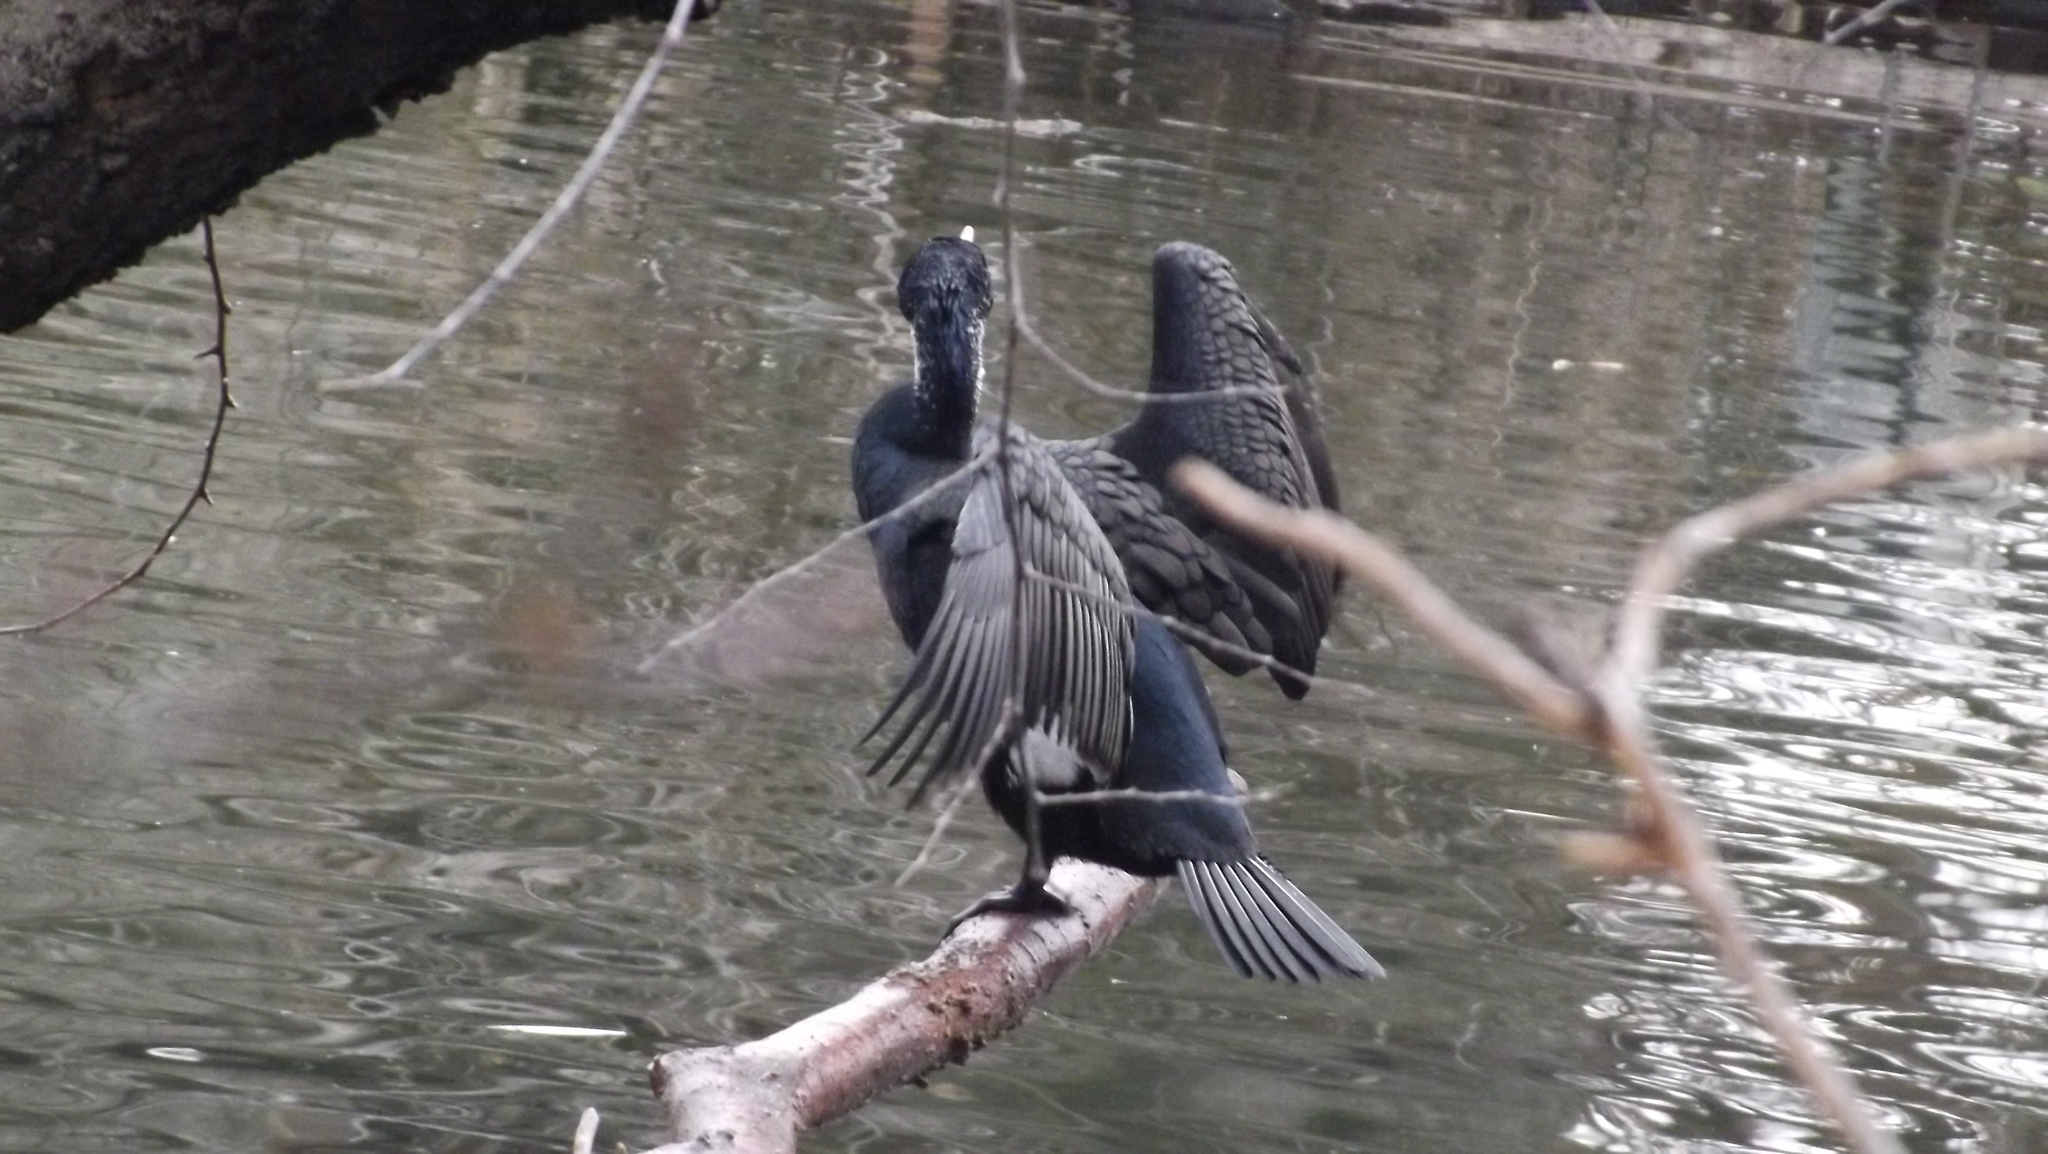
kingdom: Animalia
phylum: Chordata
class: Aves
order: Suliformes
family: Phalacrocoracidae
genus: Phalacrocorax
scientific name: Phalacrocorax carbo
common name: Great cormorant
